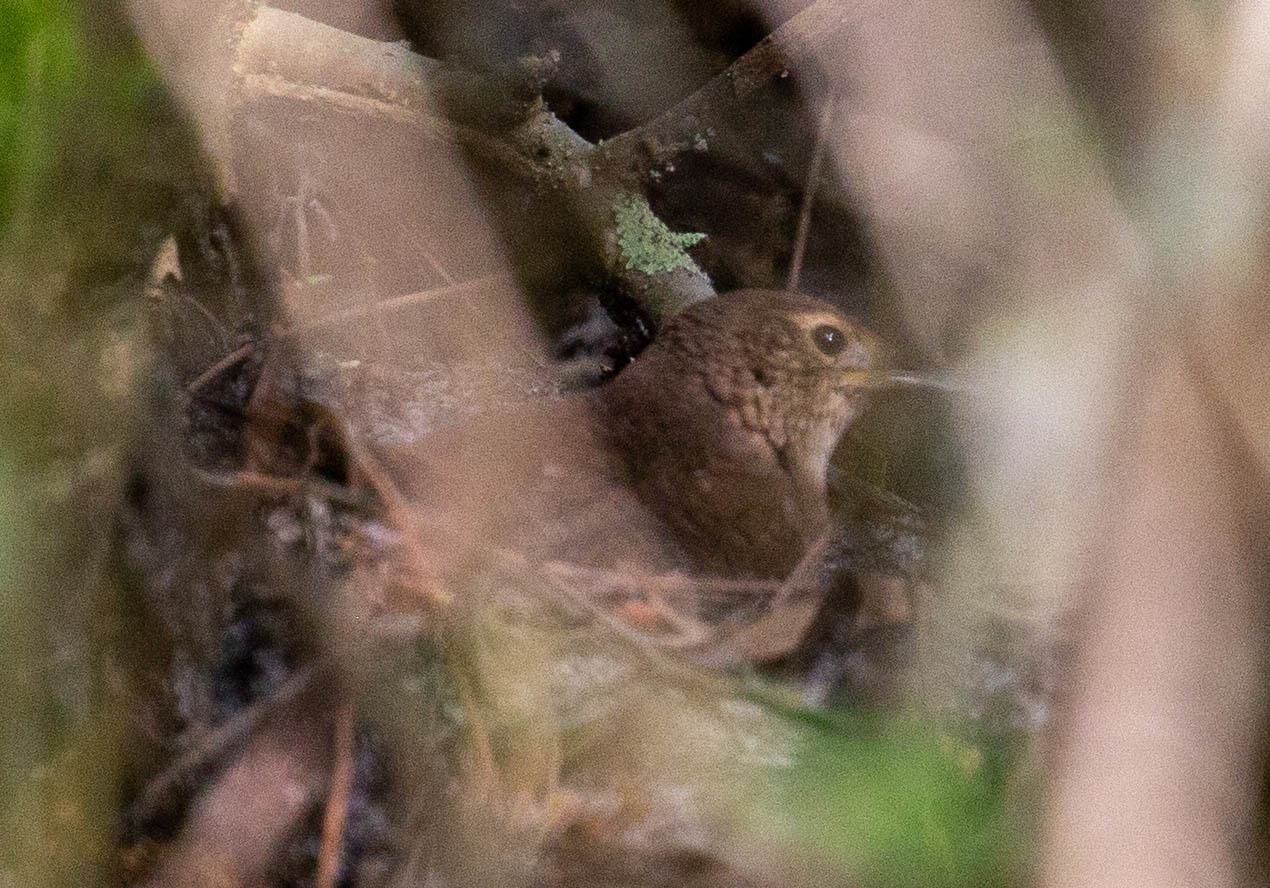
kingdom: Animalia
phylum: Chordata
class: Aves
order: Passeriformes
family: Troglodytidae
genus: Troglodytes
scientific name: Troglodytes aedon
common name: House wren
